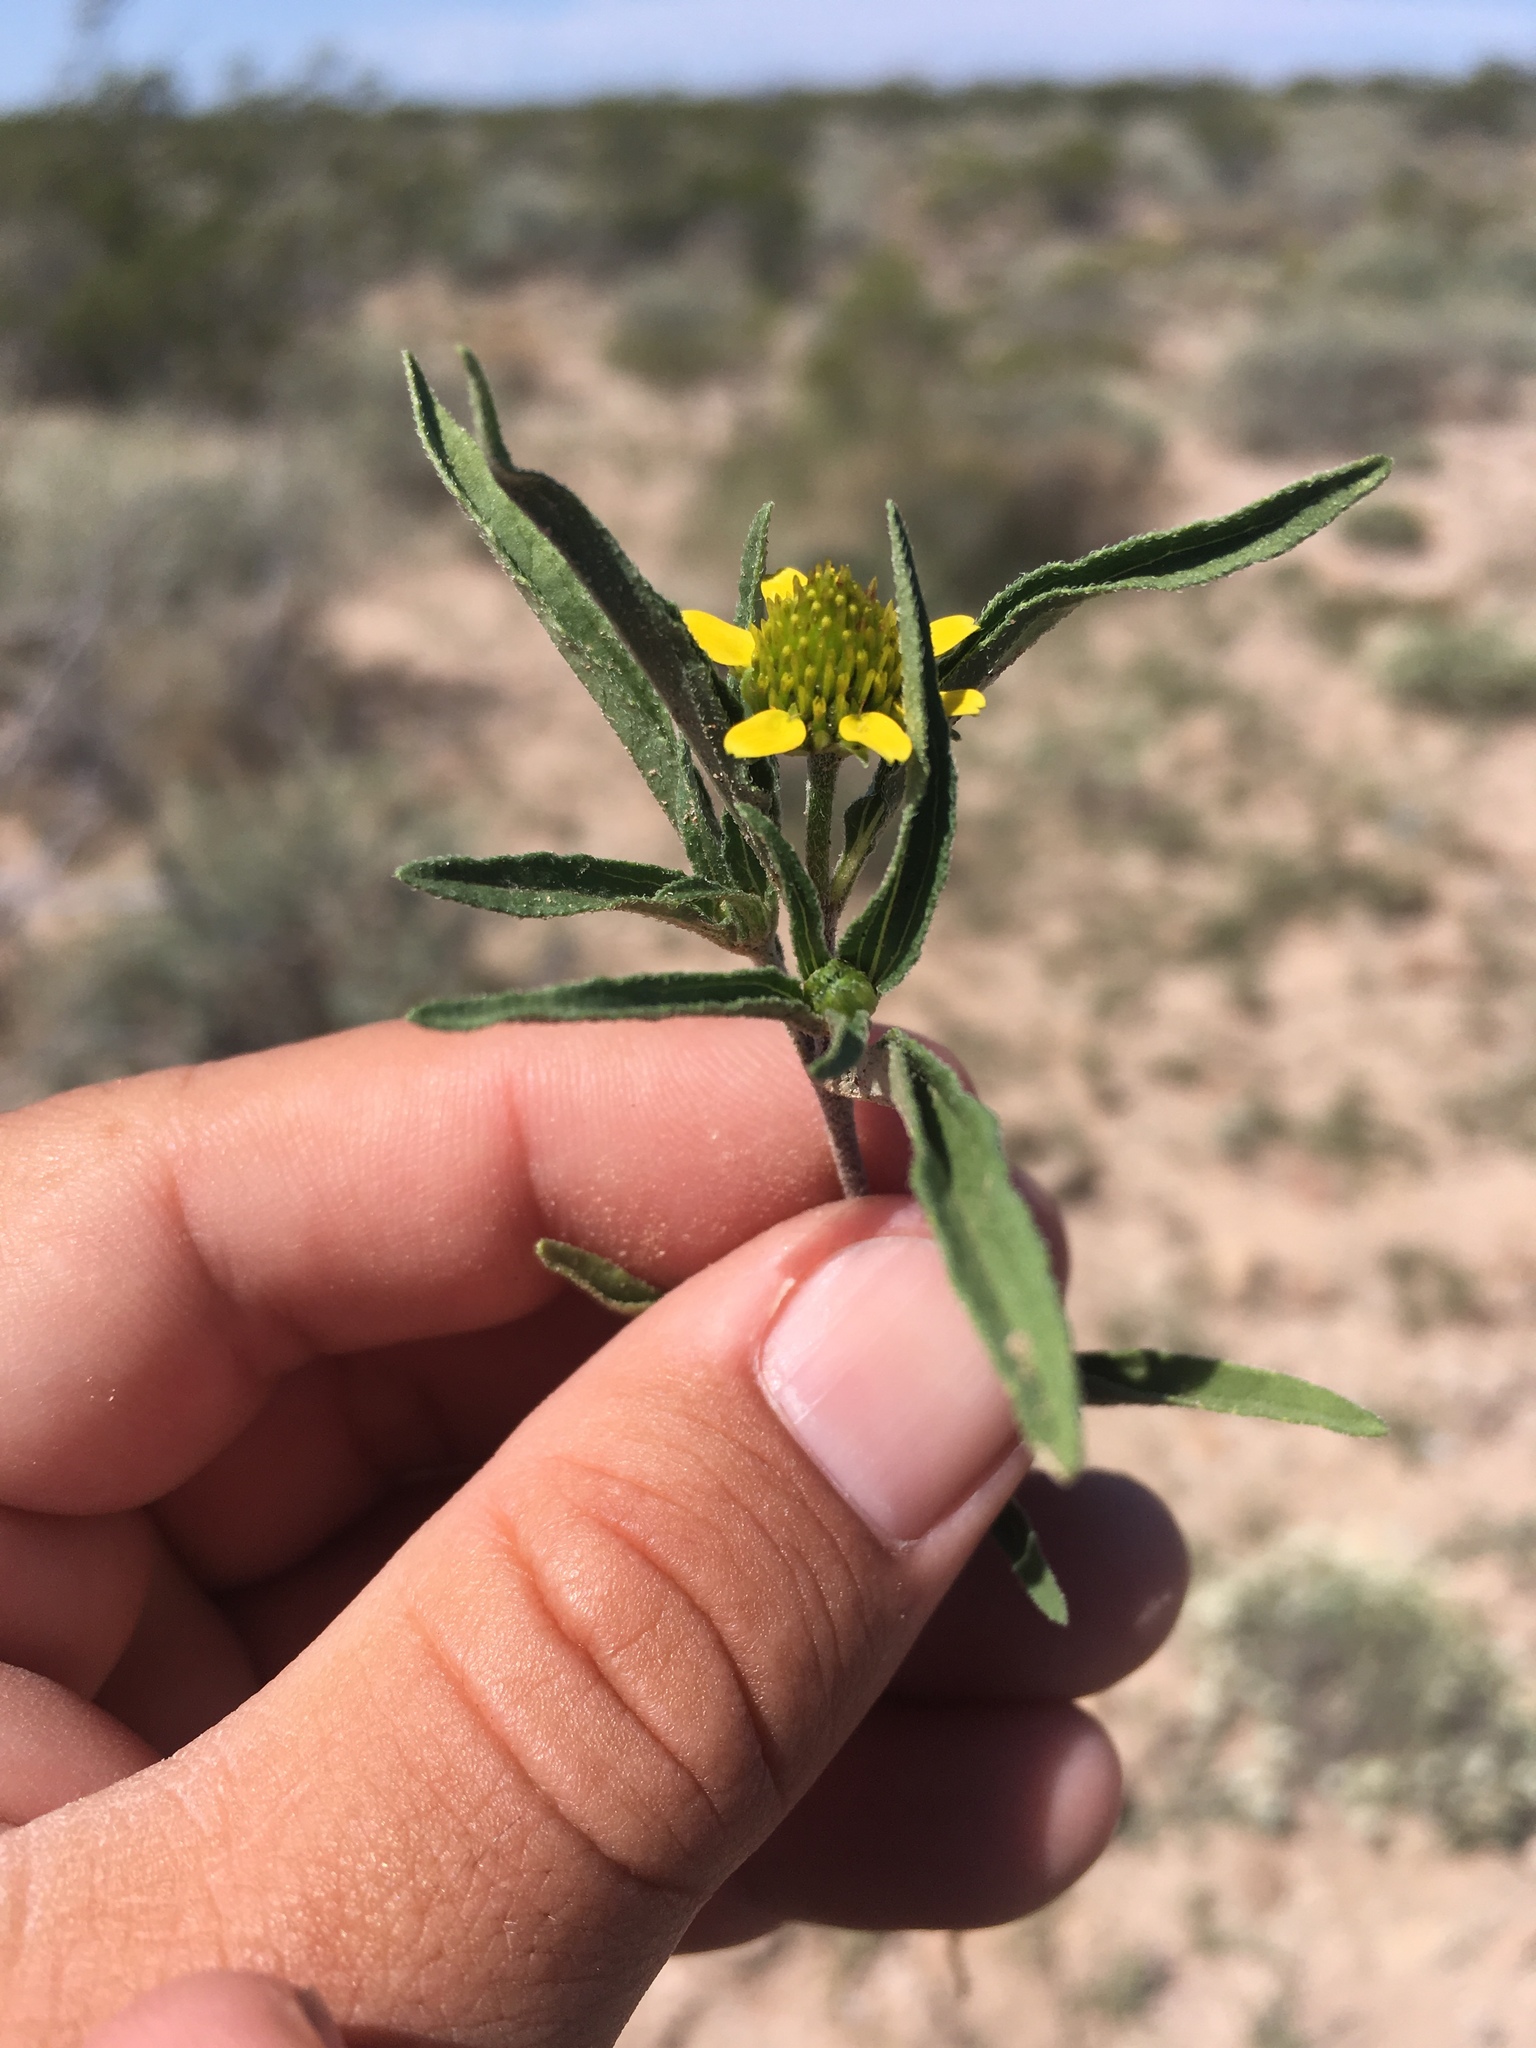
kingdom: Plantae
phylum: Tracheophyta
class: Magnoliopsida
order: Asterales
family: Asteraceae
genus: Sanvitalia
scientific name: Sanvitalia abertii
